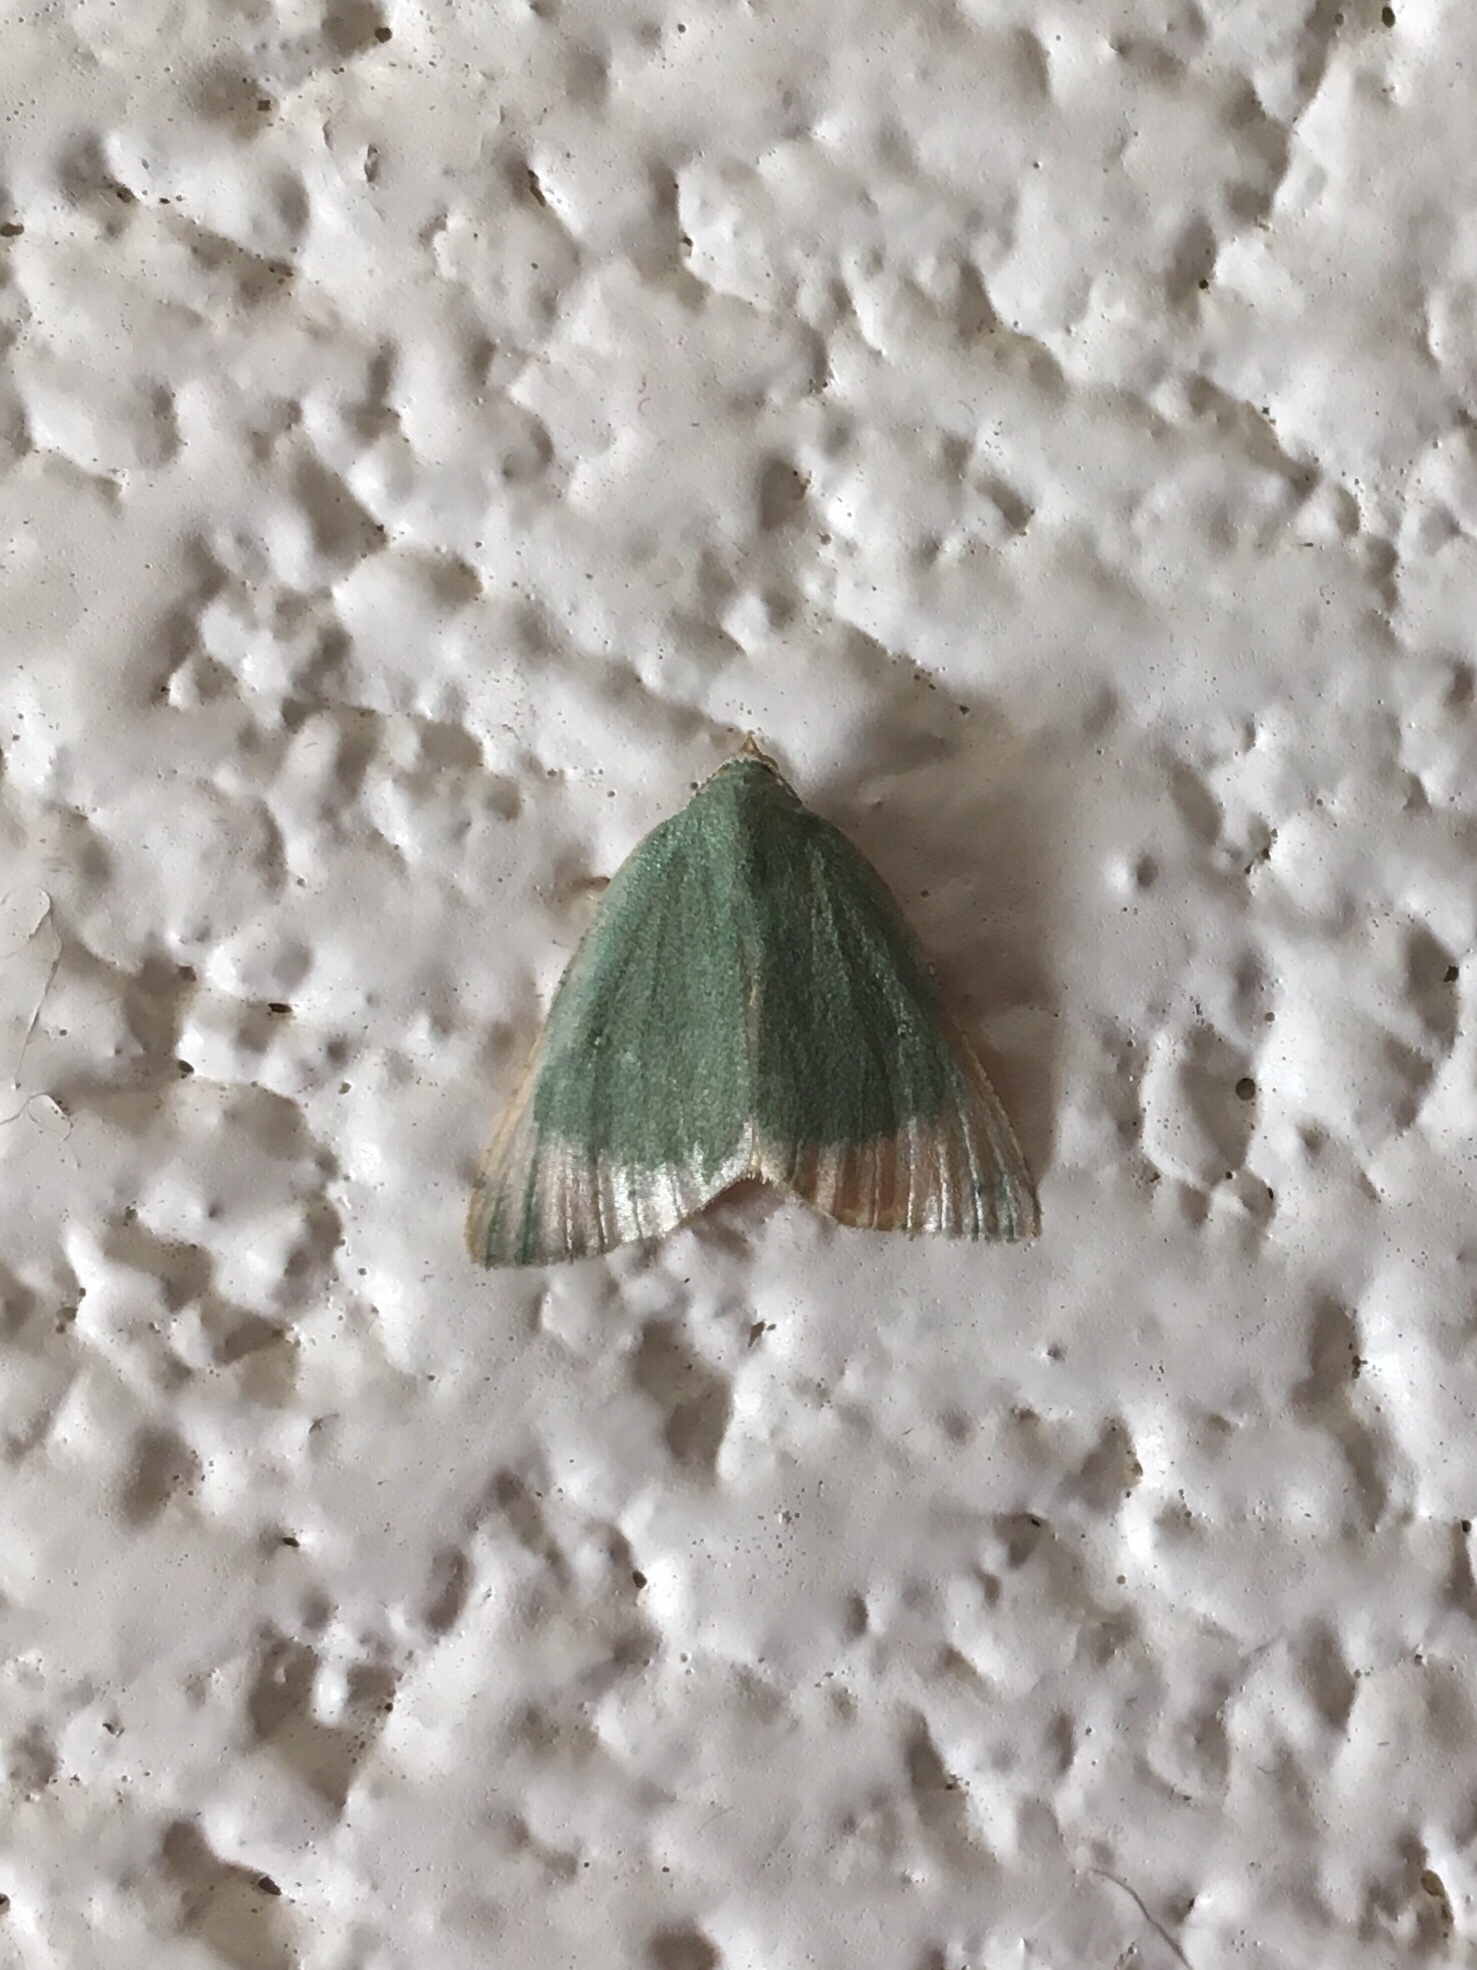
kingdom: Animalia
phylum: Arthropoda
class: Insecta
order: Lepidoptera
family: Geometridae
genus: Chloraspilates
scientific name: Chloraspilates bicoloraria
